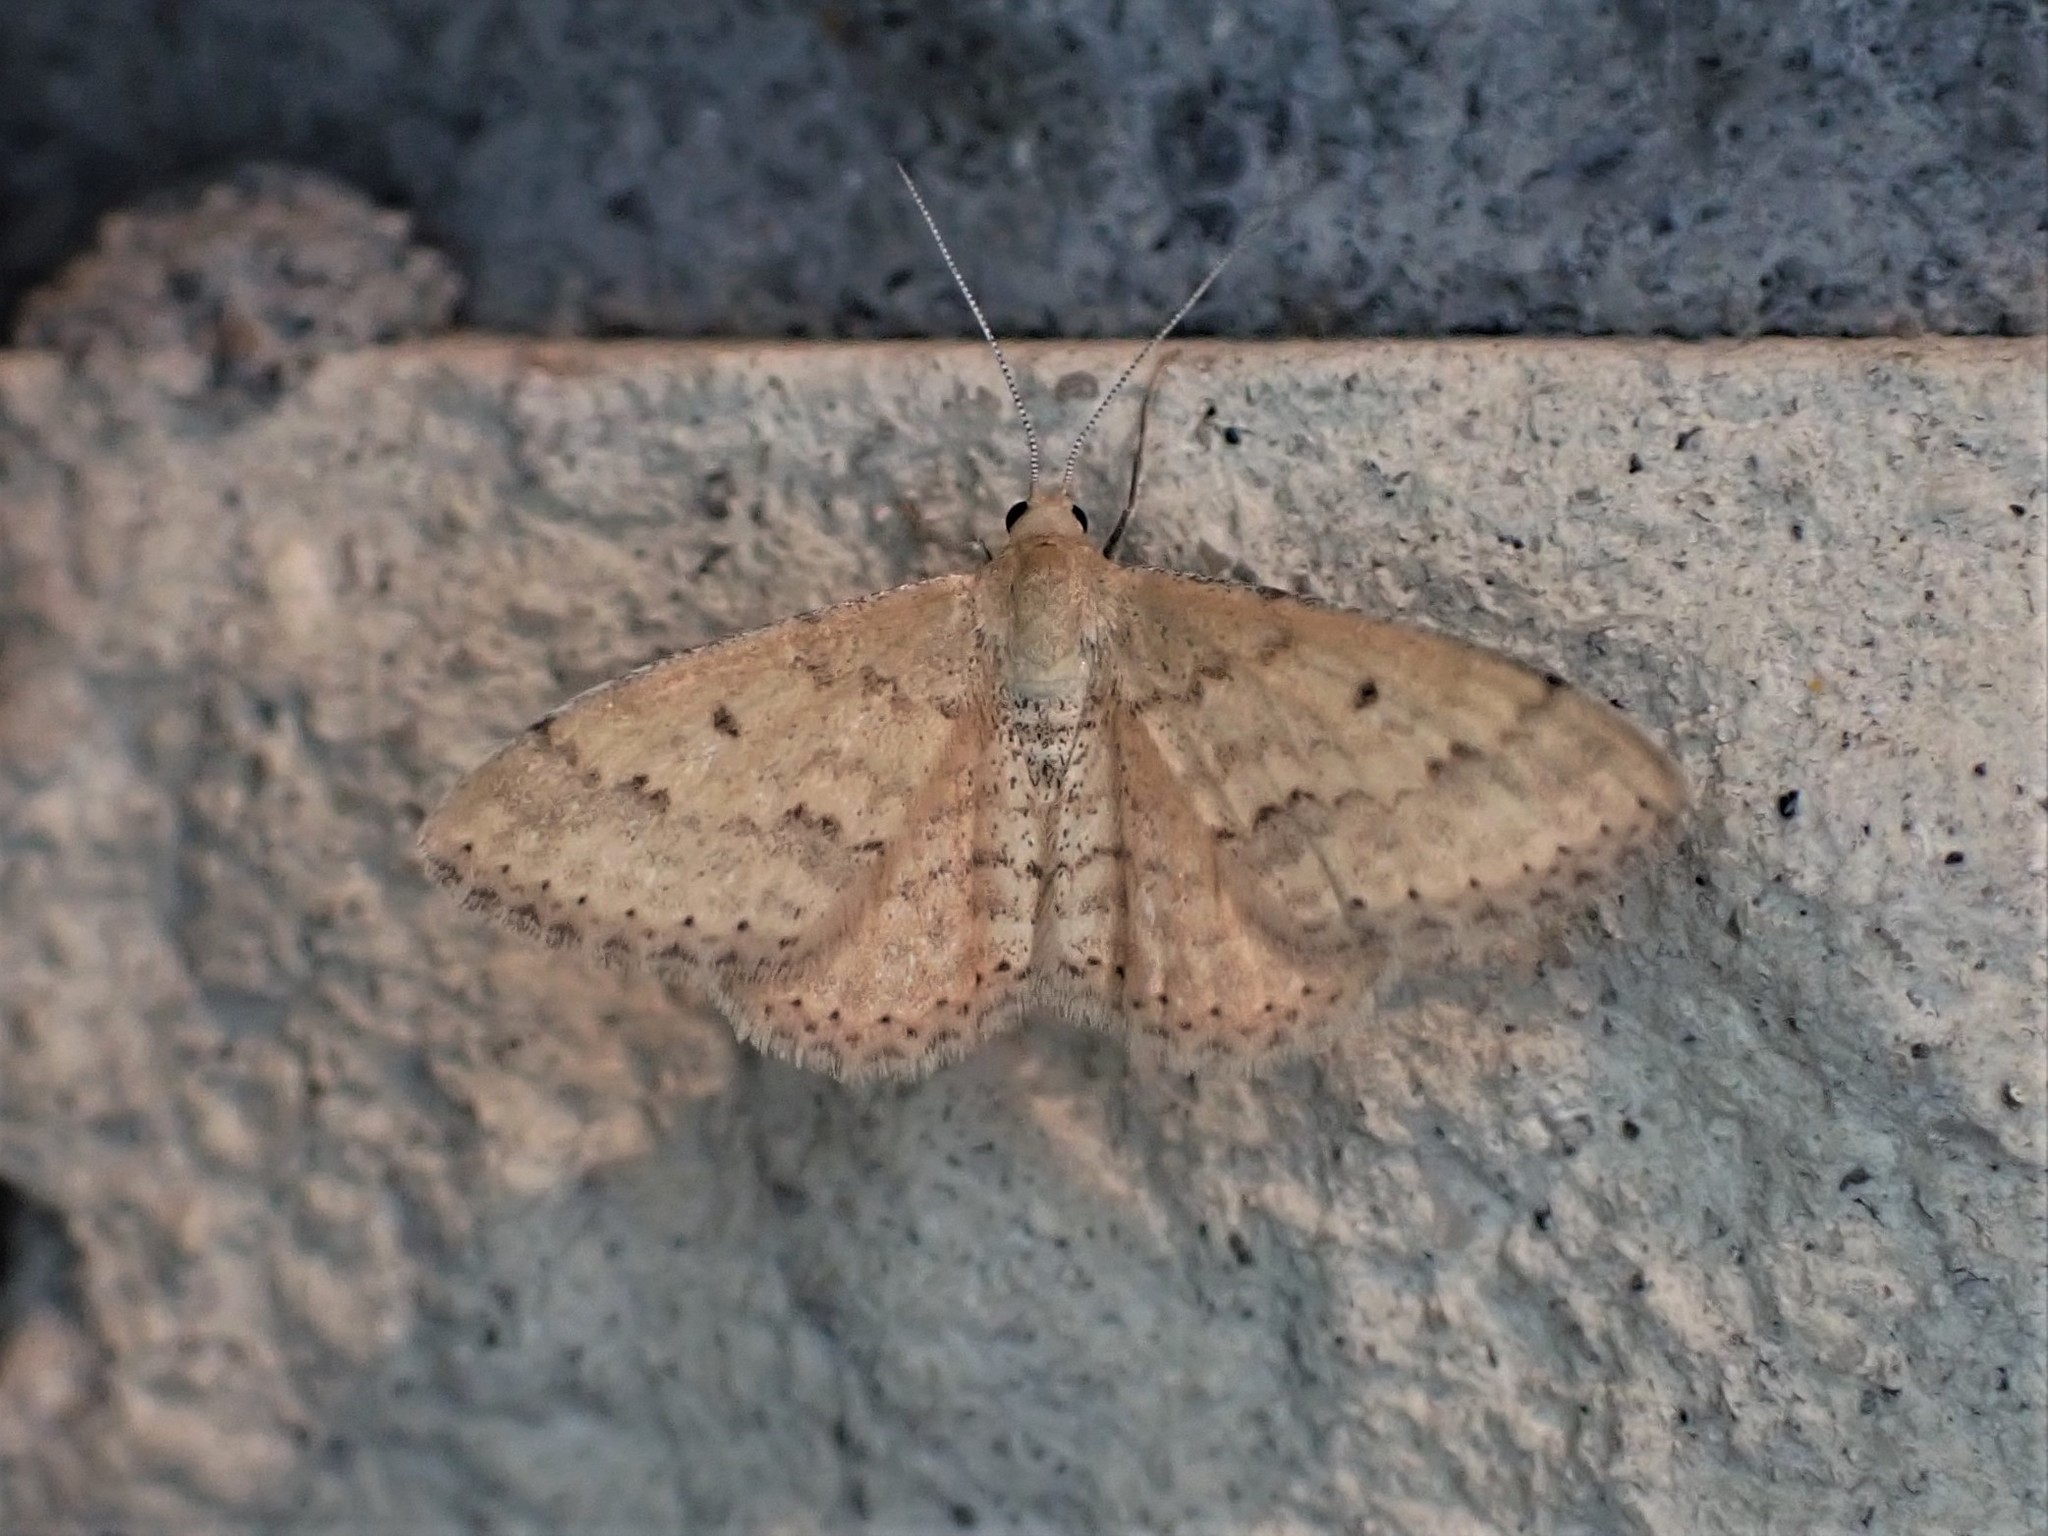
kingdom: Animalia
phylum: Arthropoda
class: Insecta
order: Lepidoptera
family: Geometridae
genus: Scopula
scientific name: Scopula rubraria
